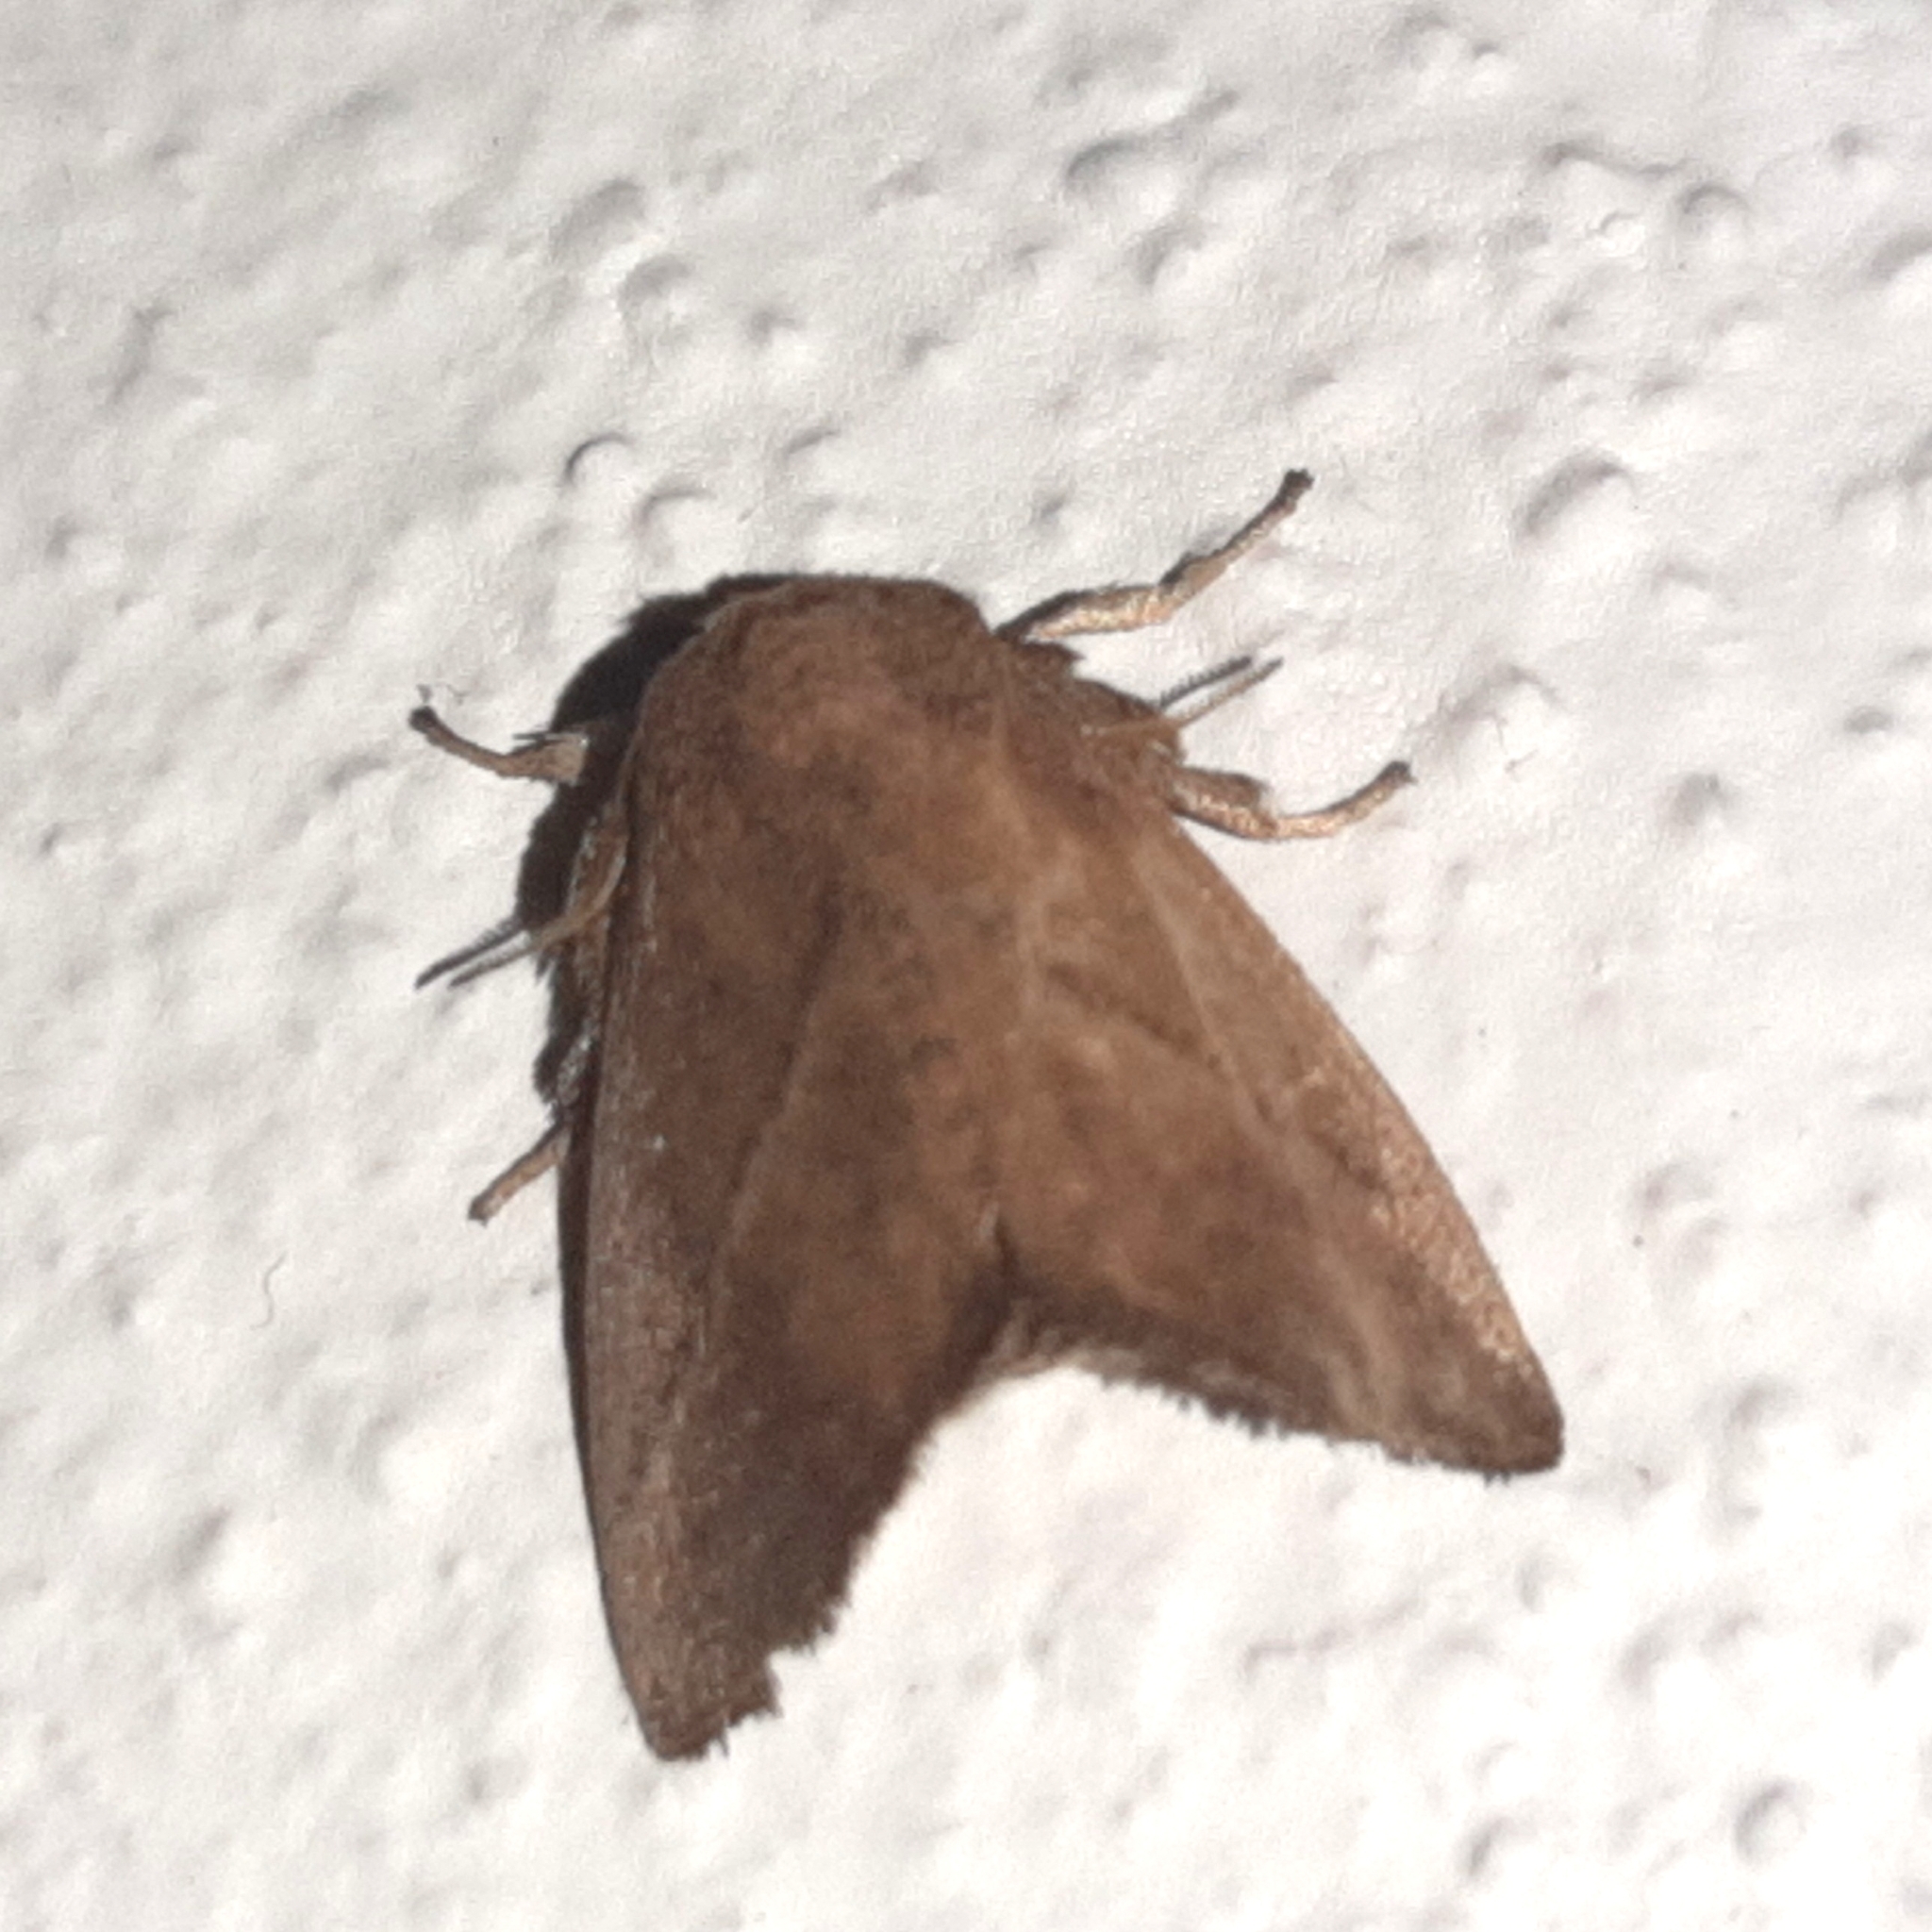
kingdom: Animalia
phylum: Arthropoda
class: Insecta
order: Lepidoptera
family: Limacodidae
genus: Epiclea
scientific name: Epiclea elaea
